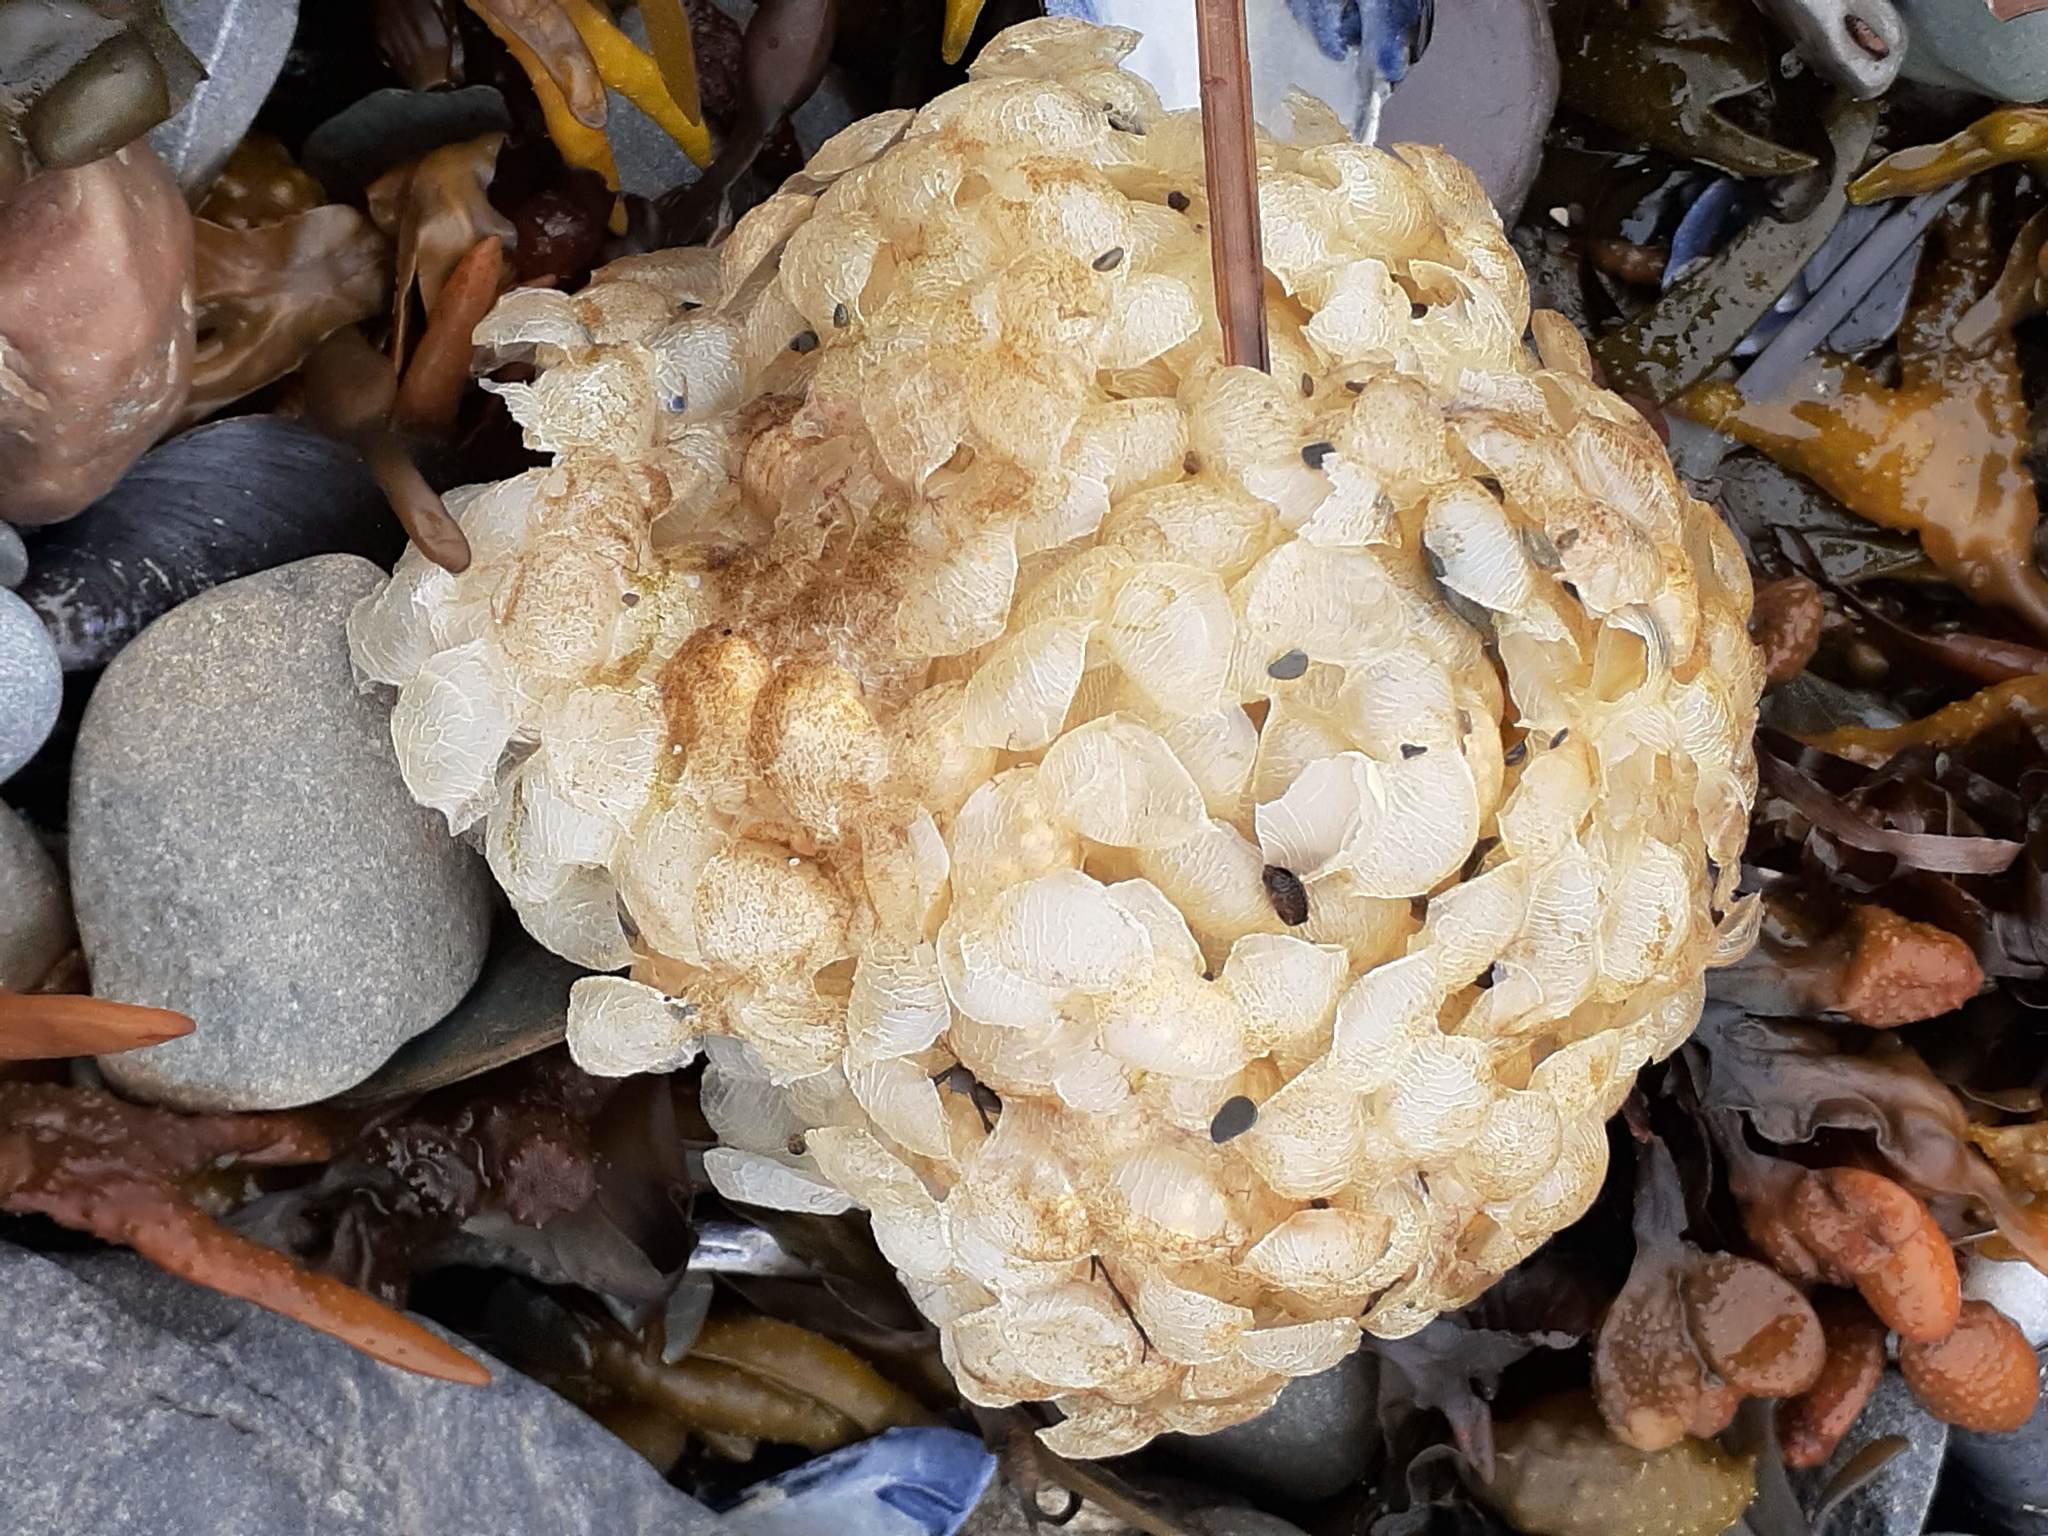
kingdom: Animalia
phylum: Mollusca
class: Gastropoda
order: Neogastropoda
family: Buccinidae
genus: Buccinum
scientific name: Buccinum undatum
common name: Common whelk
